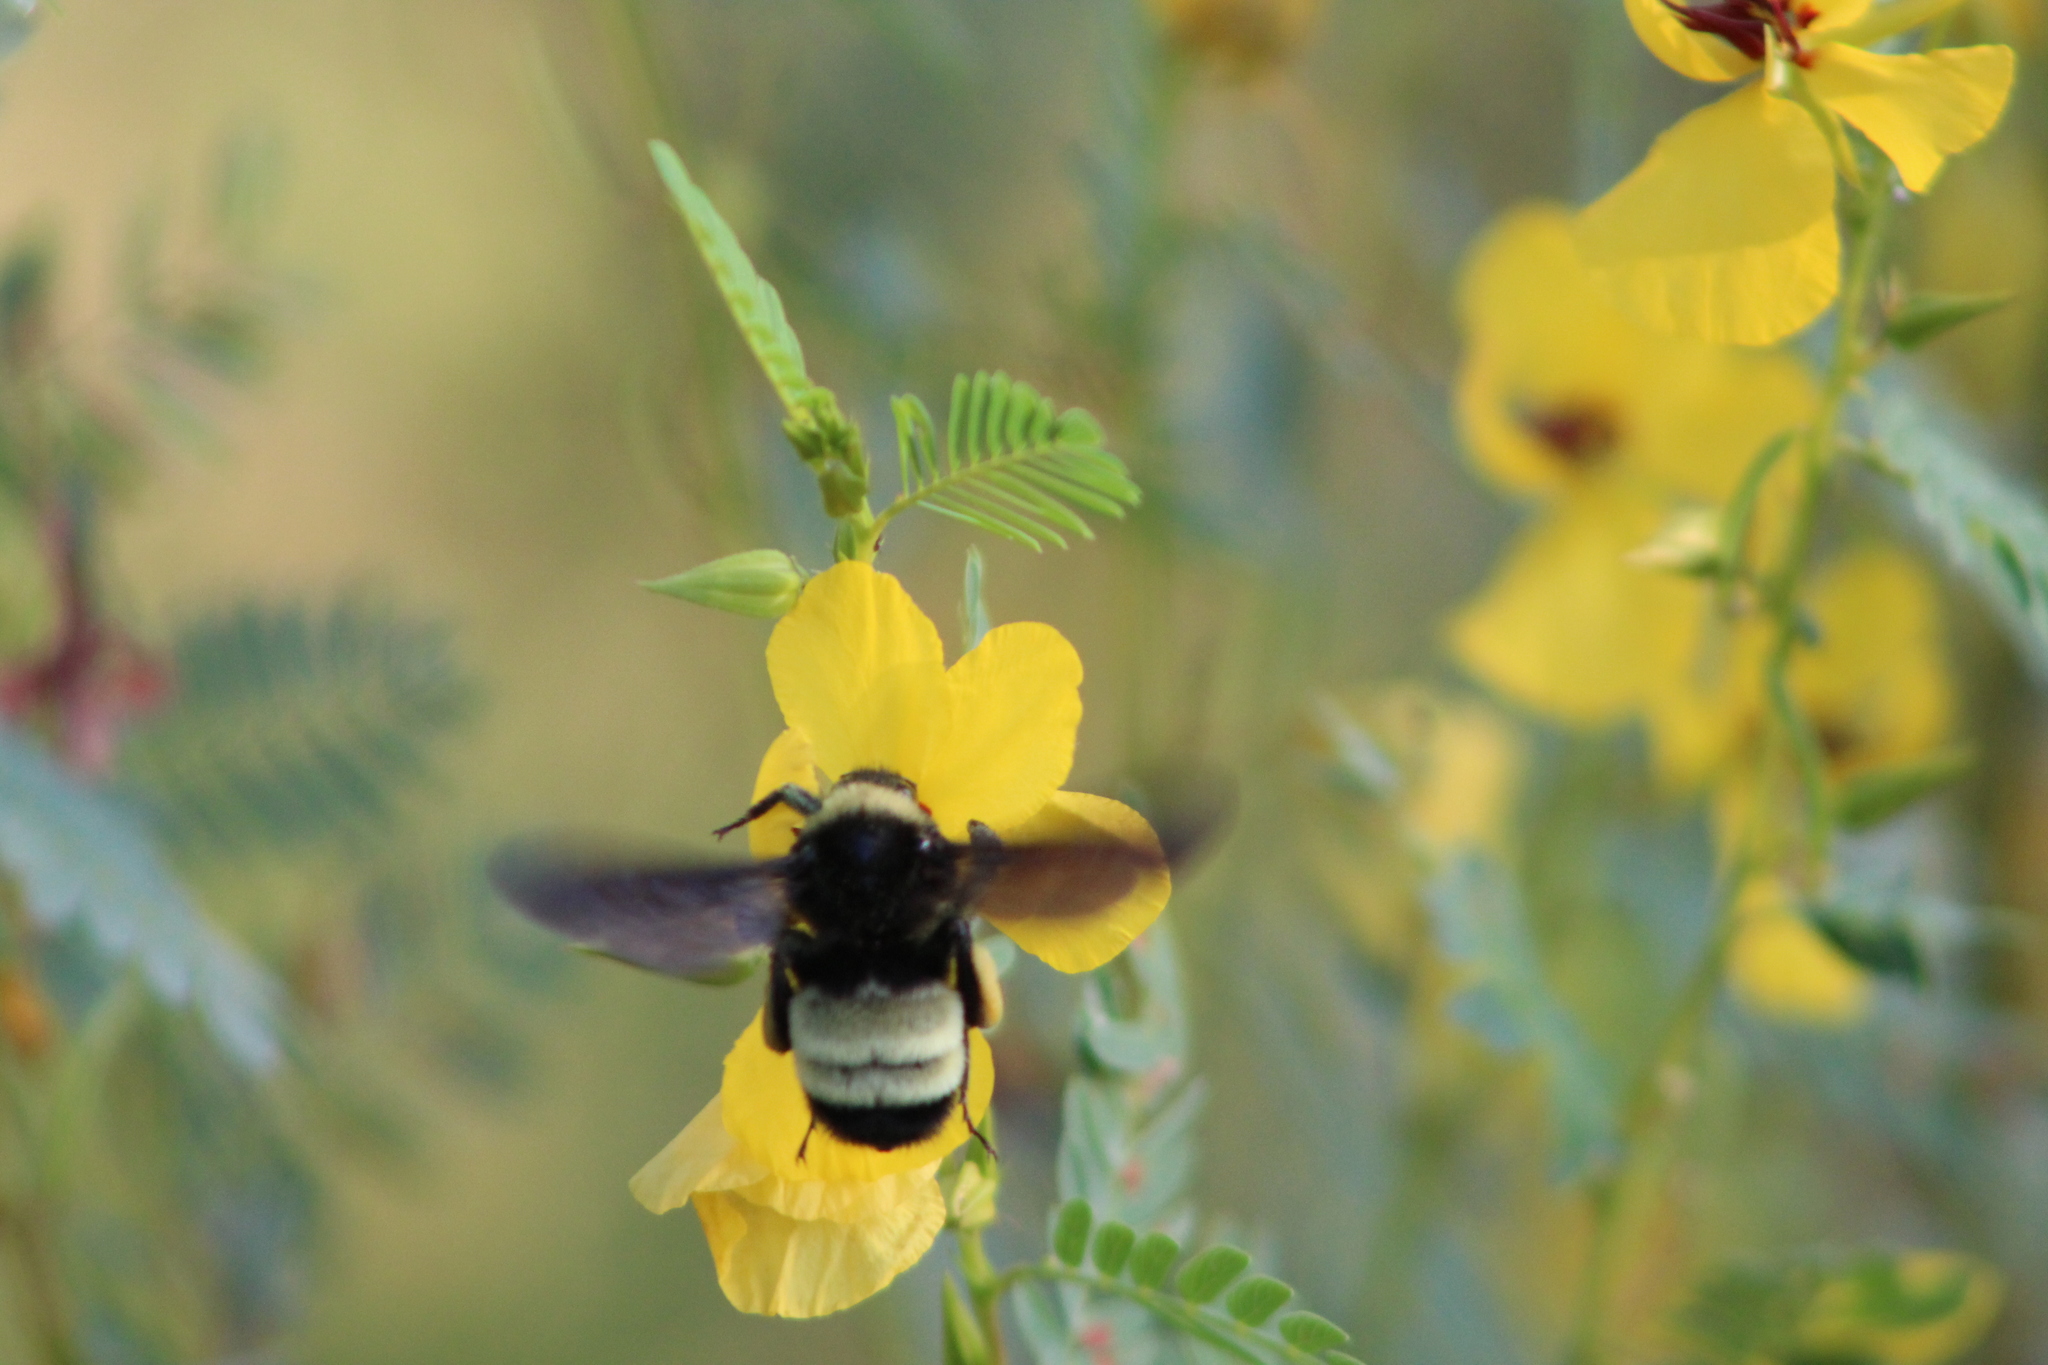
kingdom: Animalia
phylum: Arthropoda
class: Insecta
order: Hymenoptera
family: Apidae
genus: Bombus
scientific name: Bombus pensylvanicus
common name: Bumble bee
